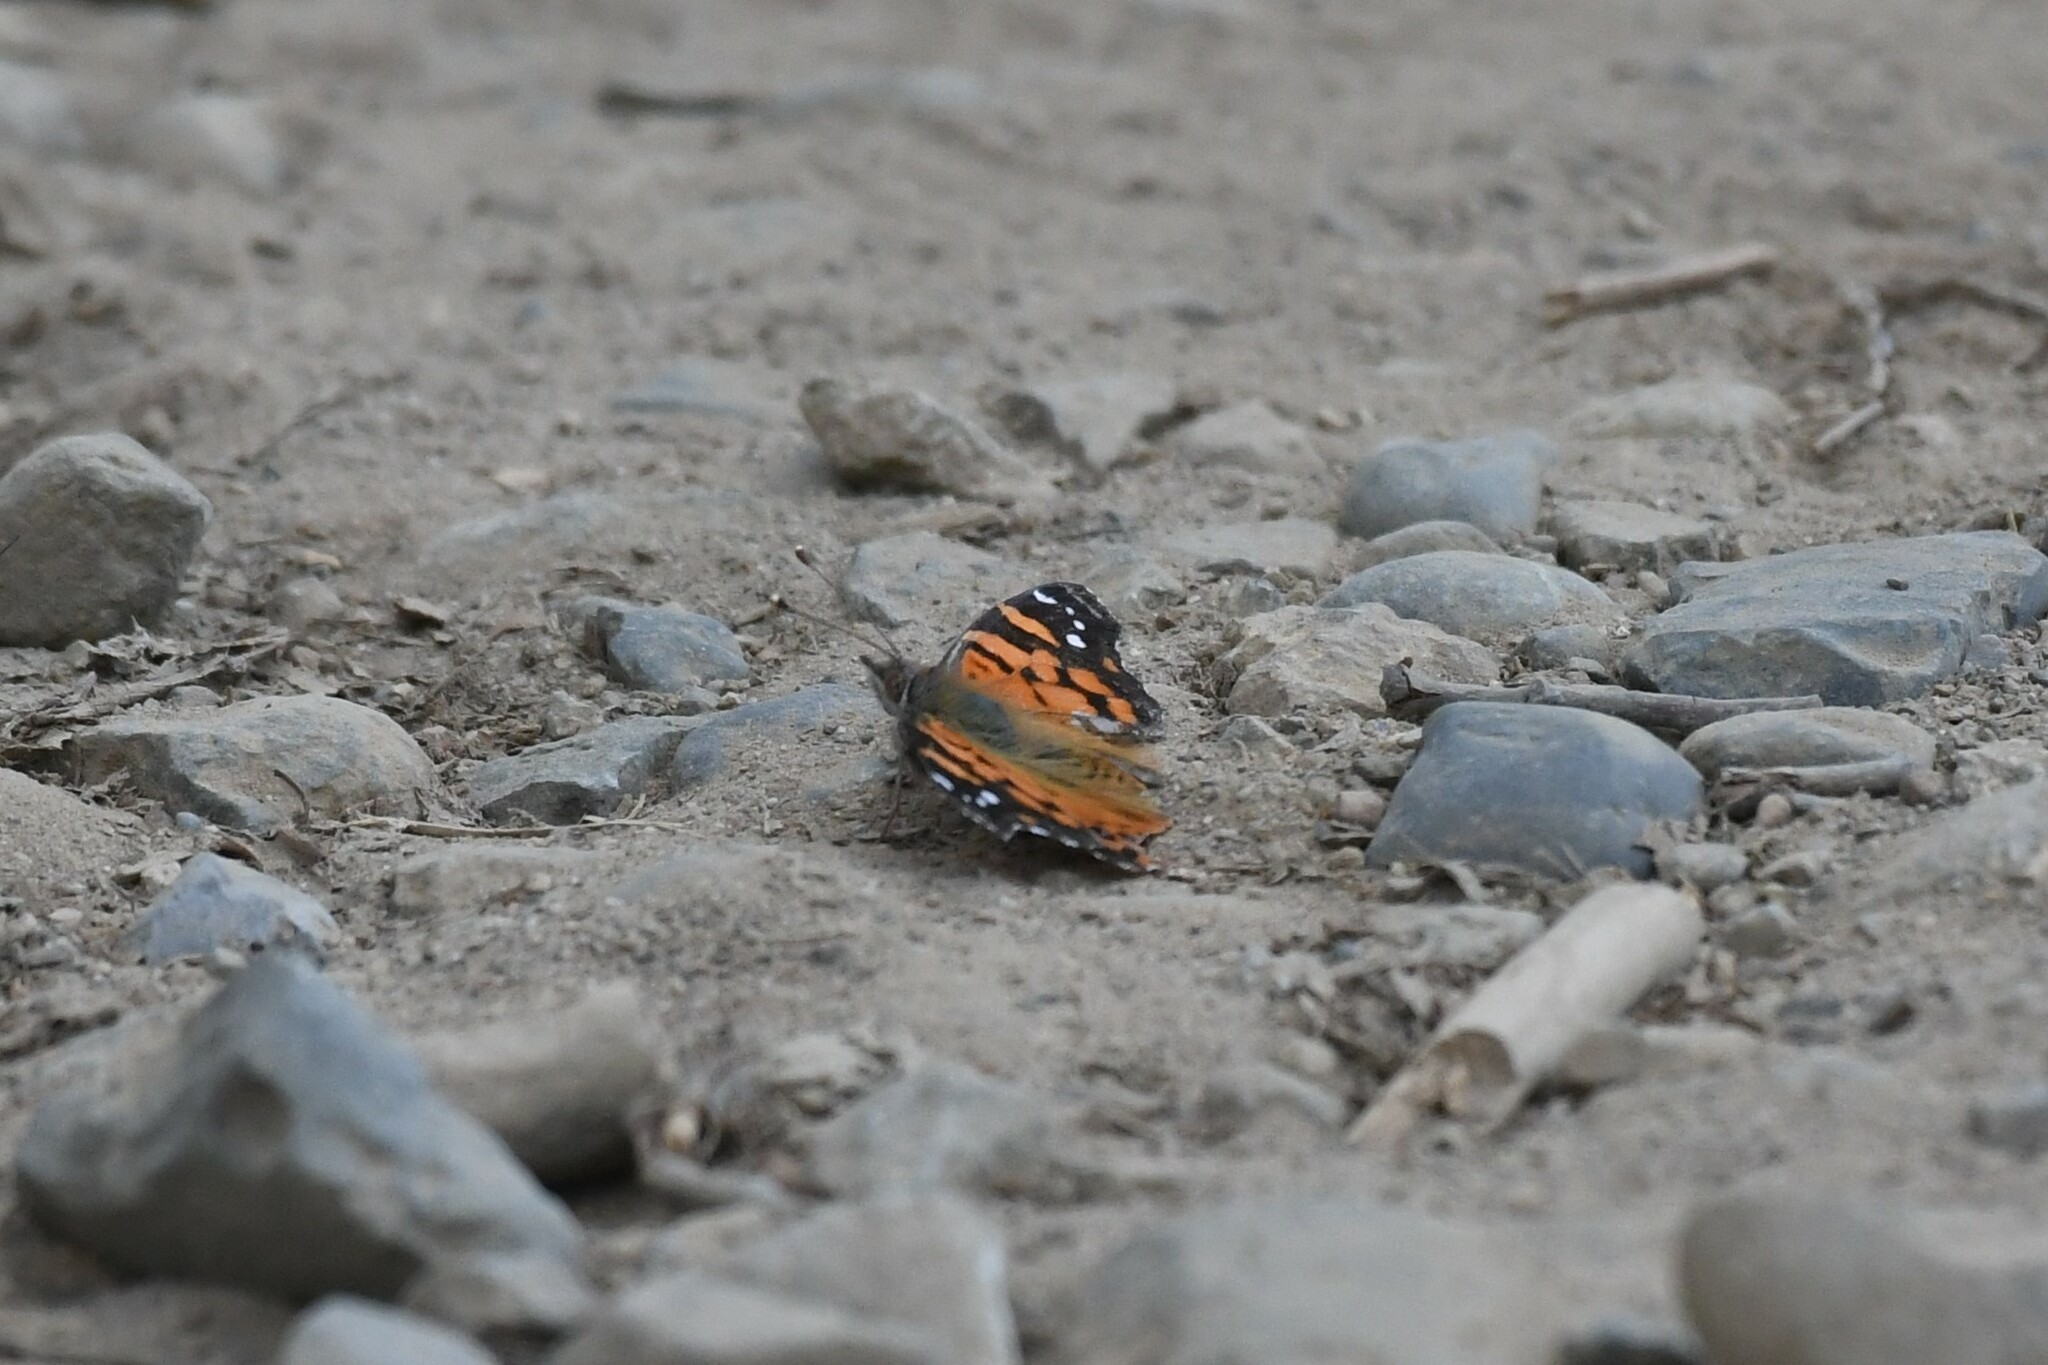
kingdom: Animalia
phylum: Arthropoda
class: Insecta
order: Lepidoptera
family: Nymphalidae
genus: Vanessa
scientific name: Vanessa carye
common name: Subtropical lady
